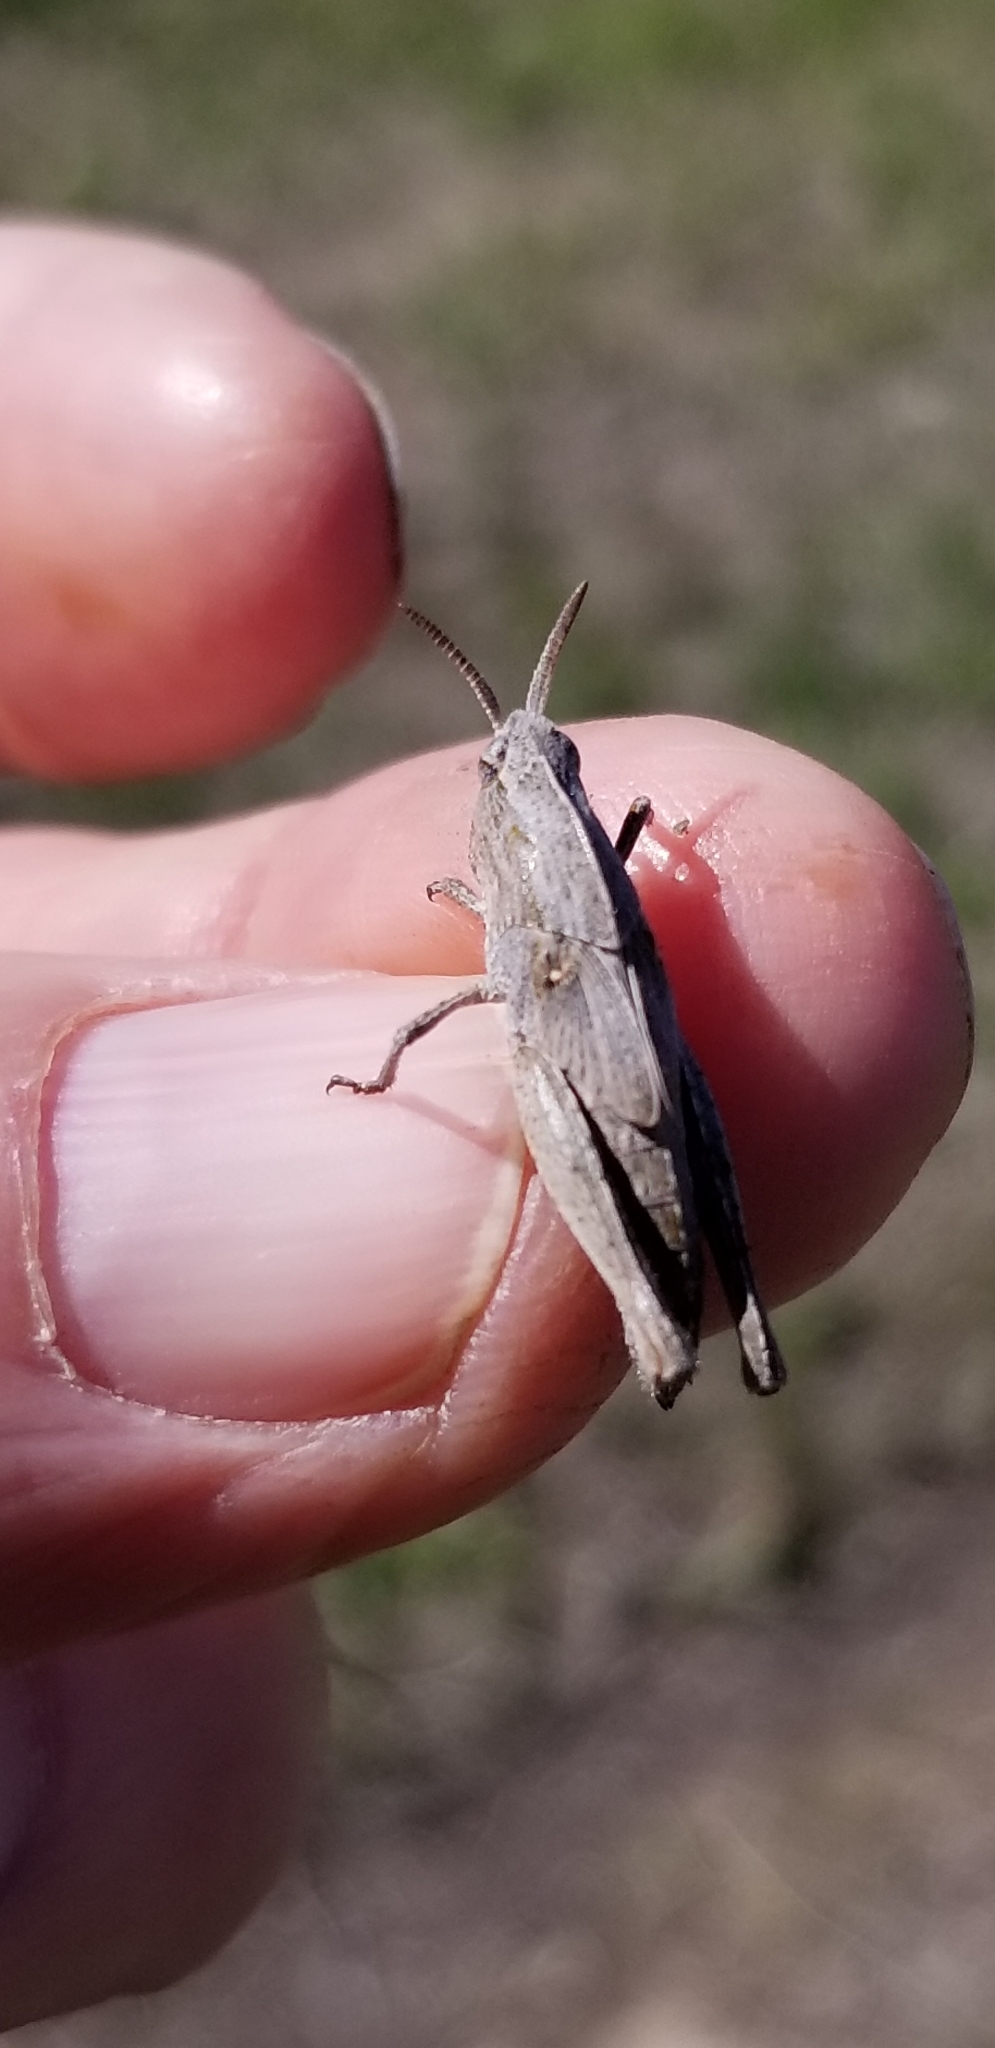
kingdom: Animalia
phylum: Arthropoda
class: Insecta
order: Orthoptera
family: Acrididae
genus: Chortophaga
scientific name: Chortophaga viridifasciata
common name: Green-striped grasshopper
